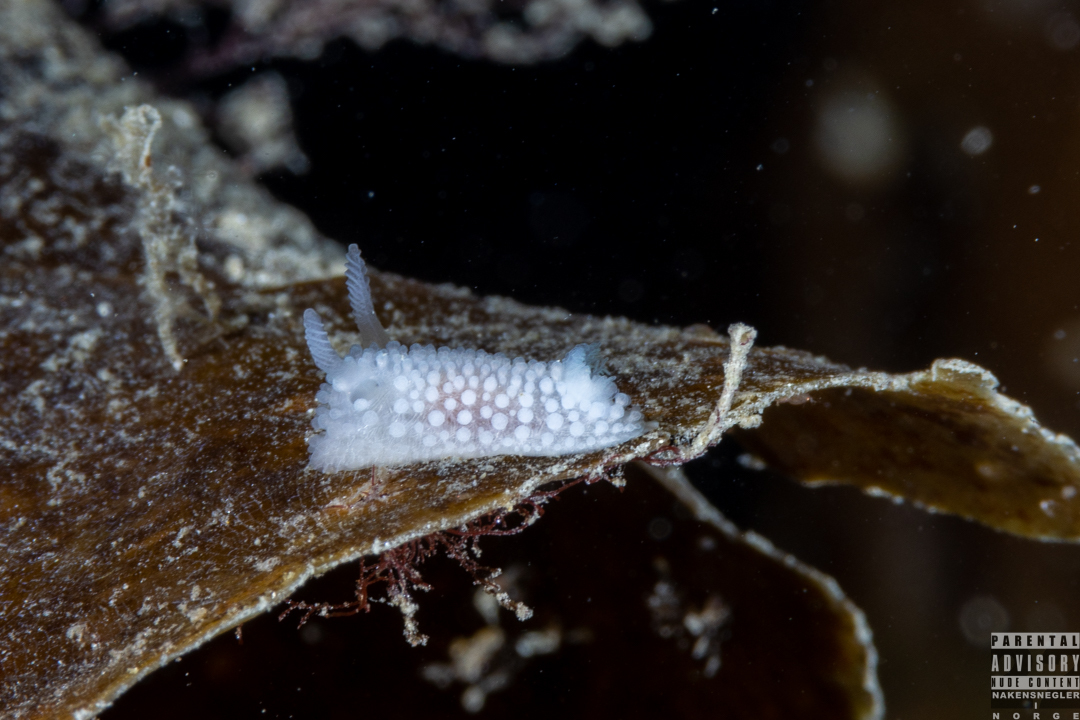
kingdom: Animalia
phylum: Mollusca
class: Gastropoda
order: Nudibranchia
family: Onchidorididae
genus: Onchidoris
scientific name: Onchidoris muricata
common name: Rough doris
